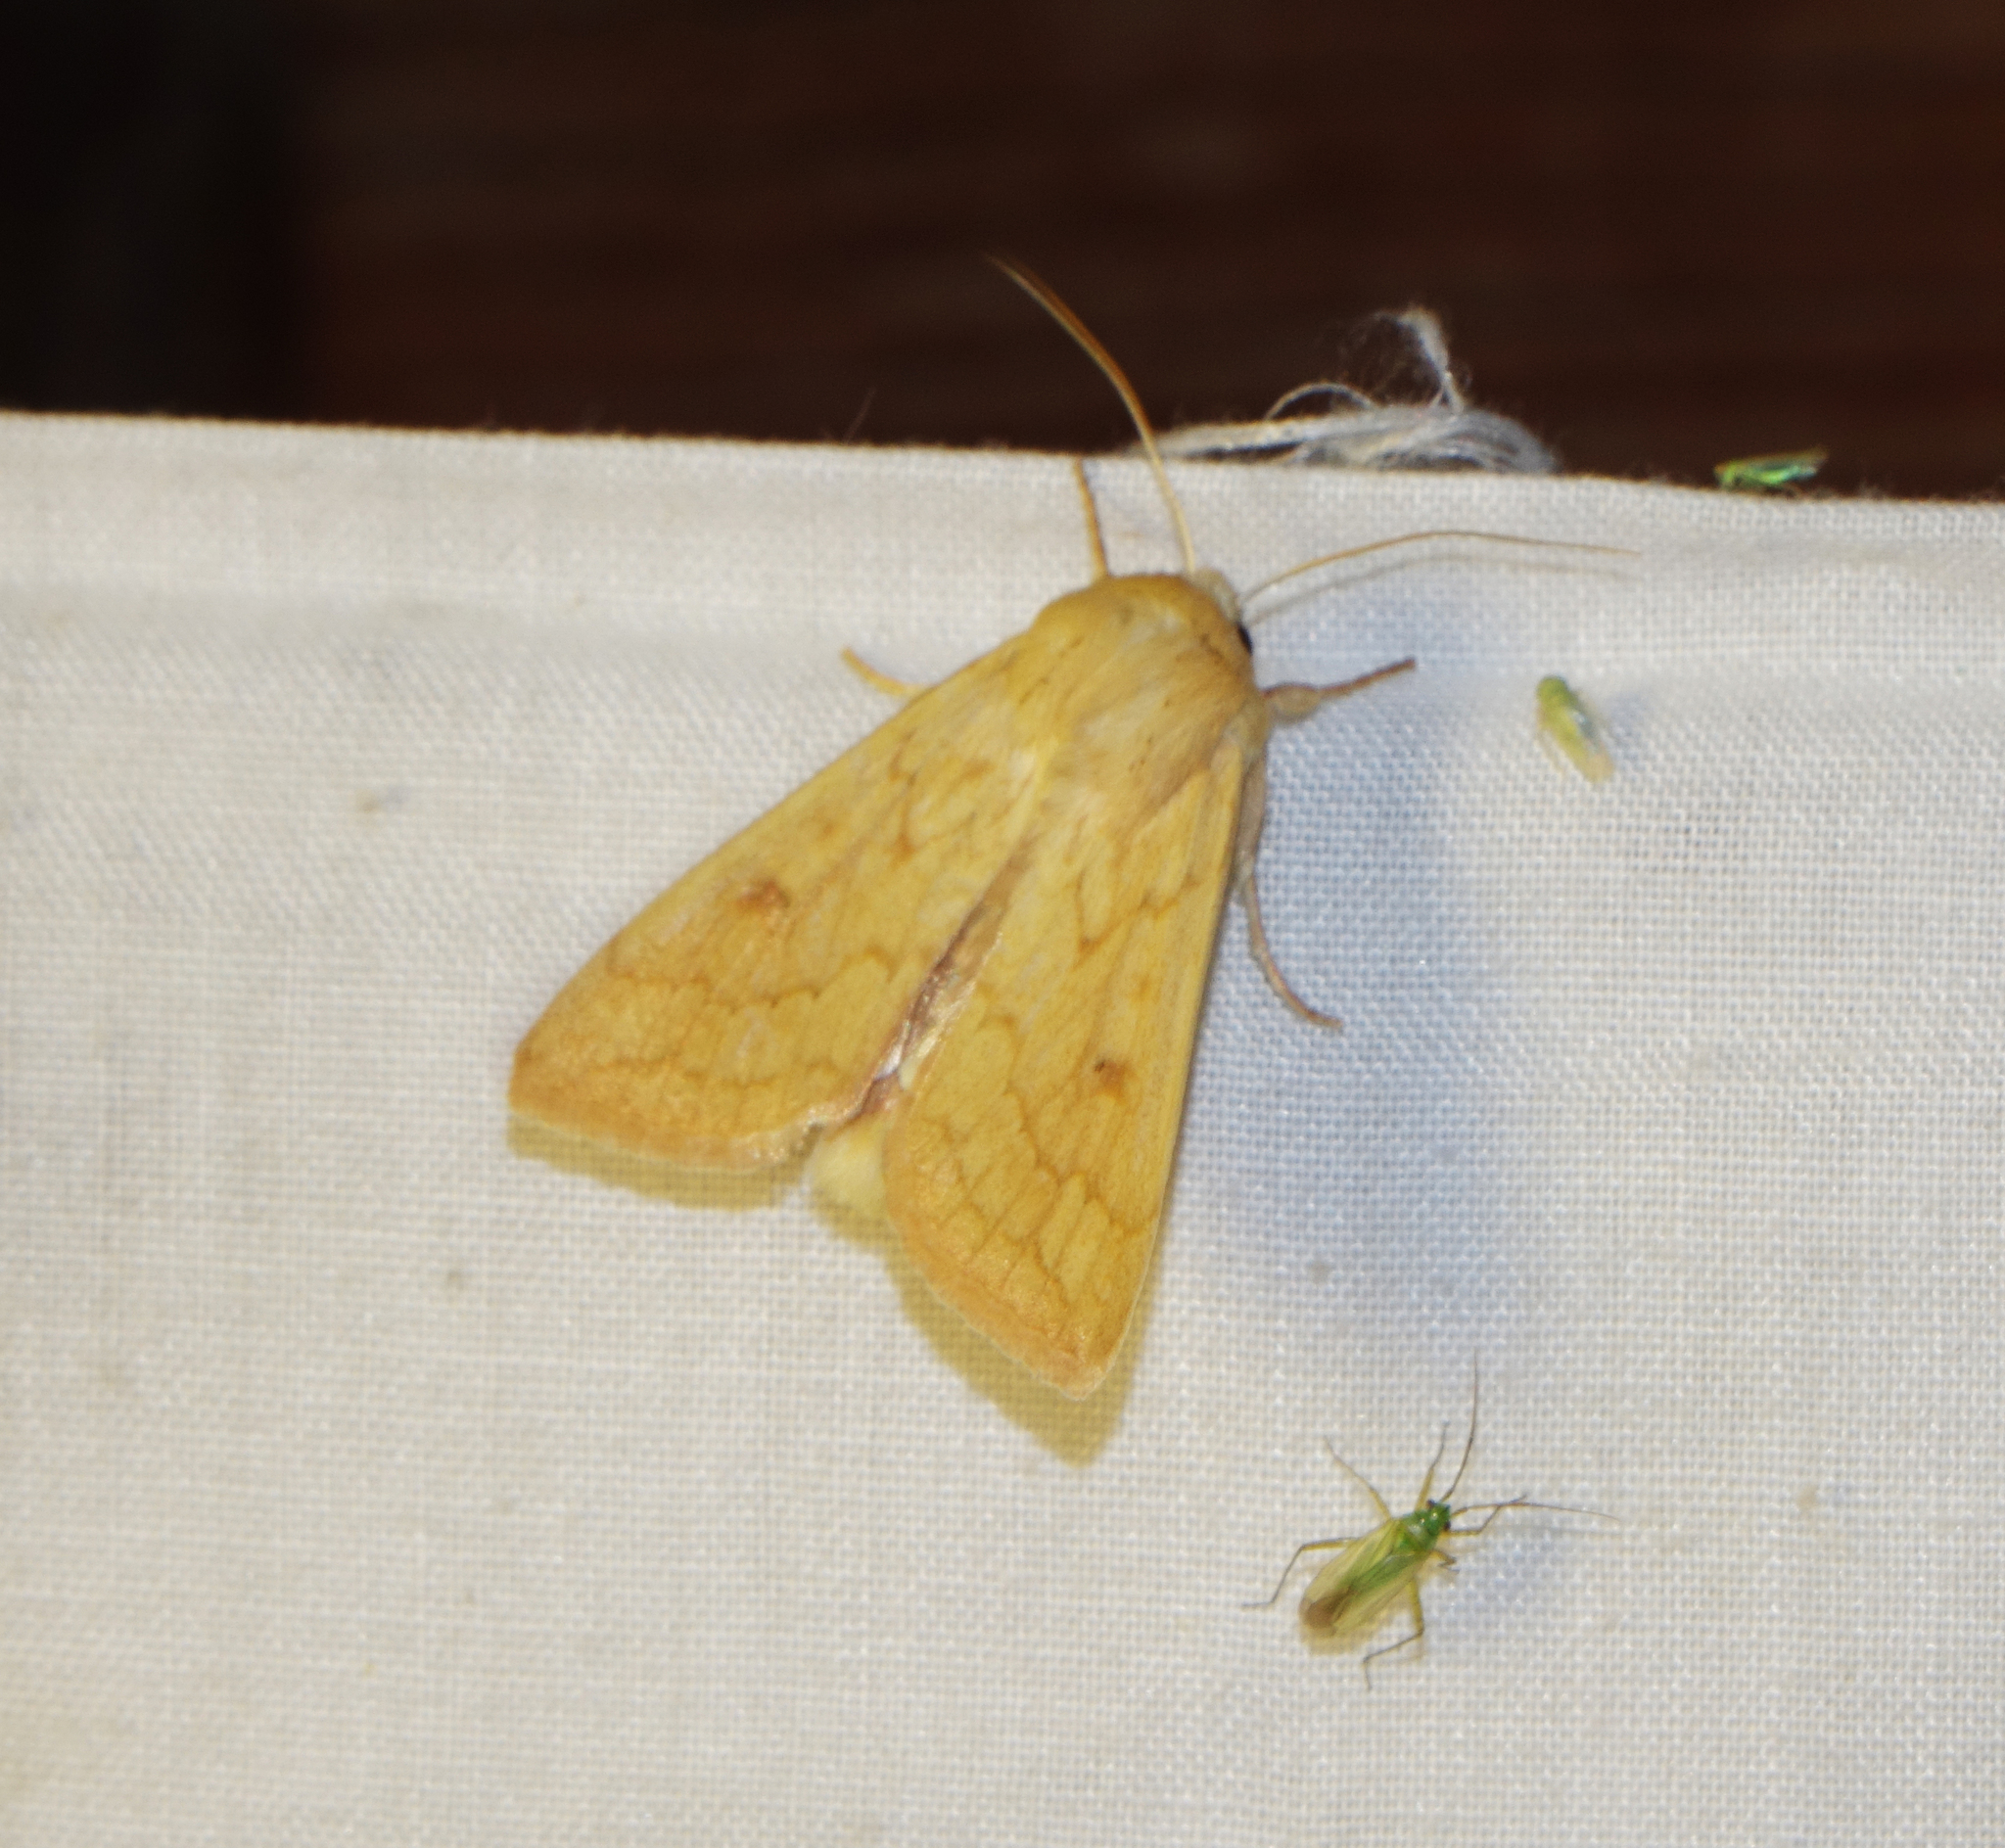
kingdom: Animalia
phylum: Arthropoda
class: Insecta
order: Lepidoptera
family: Noctuidae
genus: Mythimna
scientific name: Mythimna vitellina
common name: Delicate
